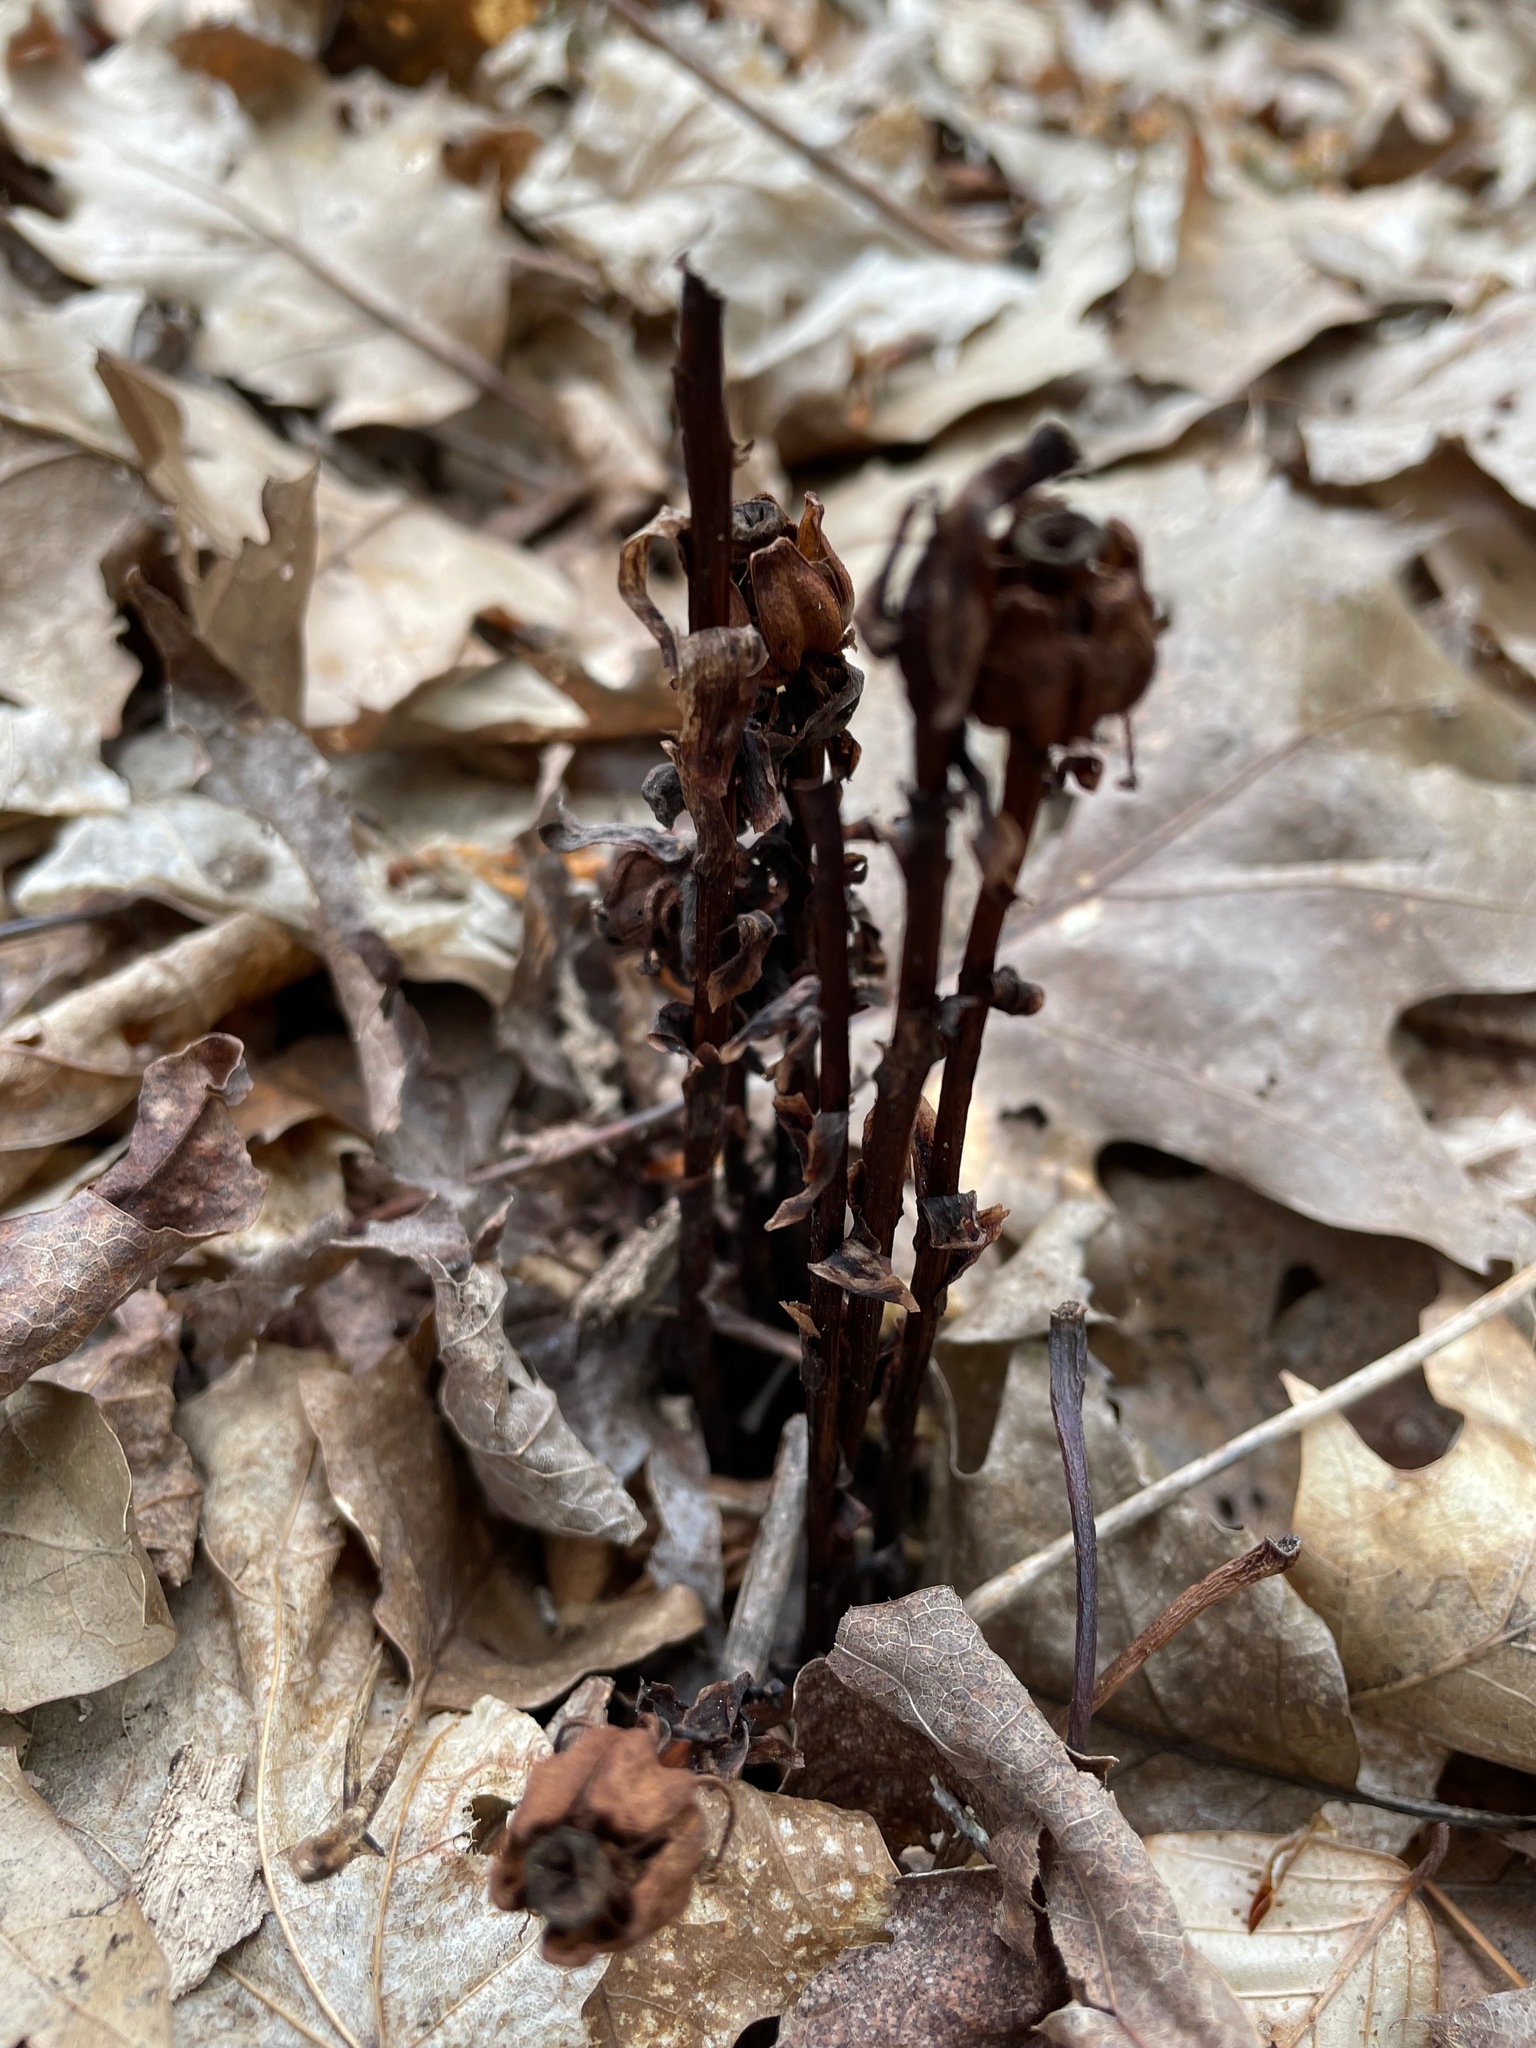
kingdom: Plantae
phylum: Tracheophyta
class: Magnoliopsida
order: Ericales
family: Ericaceae
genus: Monotropa
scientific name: Monotropa uniflora
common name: Convulsion root
